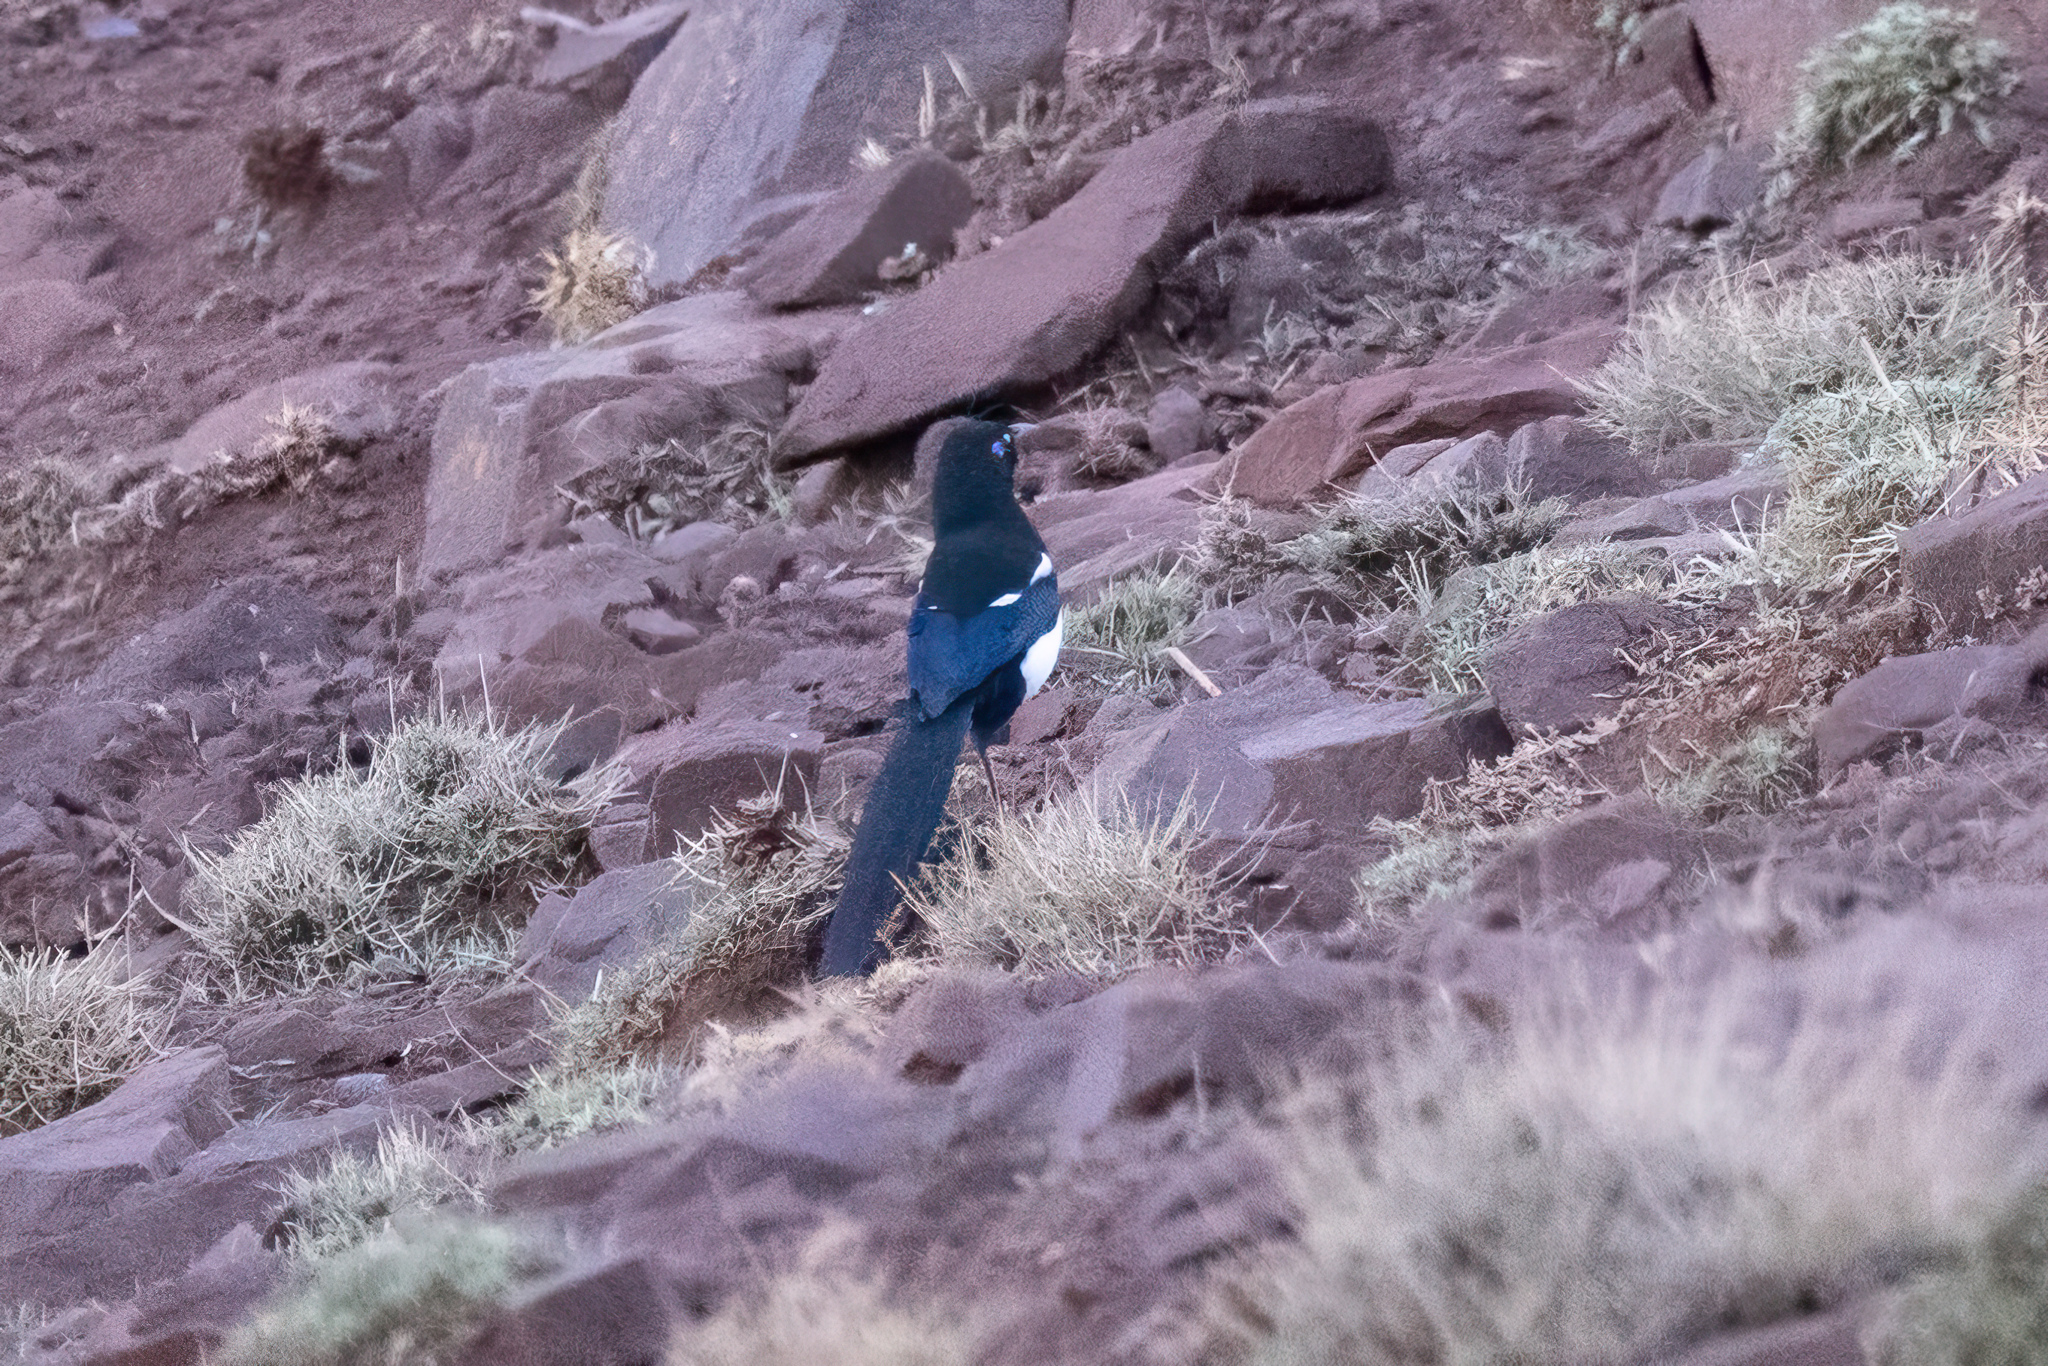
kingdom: Animalia
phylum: Chordata
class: Aves
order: Passeriformes
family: Corvidae
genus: Pica
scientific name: Pica mauritanica
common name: Maghreb magpie
